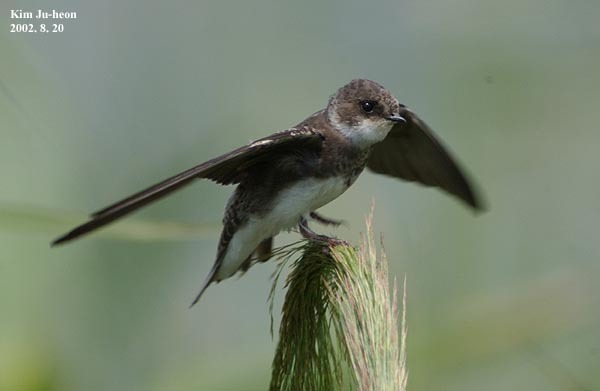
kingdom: Animalia
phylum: Chordata
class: Aves
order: Passeriformes
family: Hirundinidae
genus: Riparia
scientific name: Riparia riparia
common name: Sand martin
